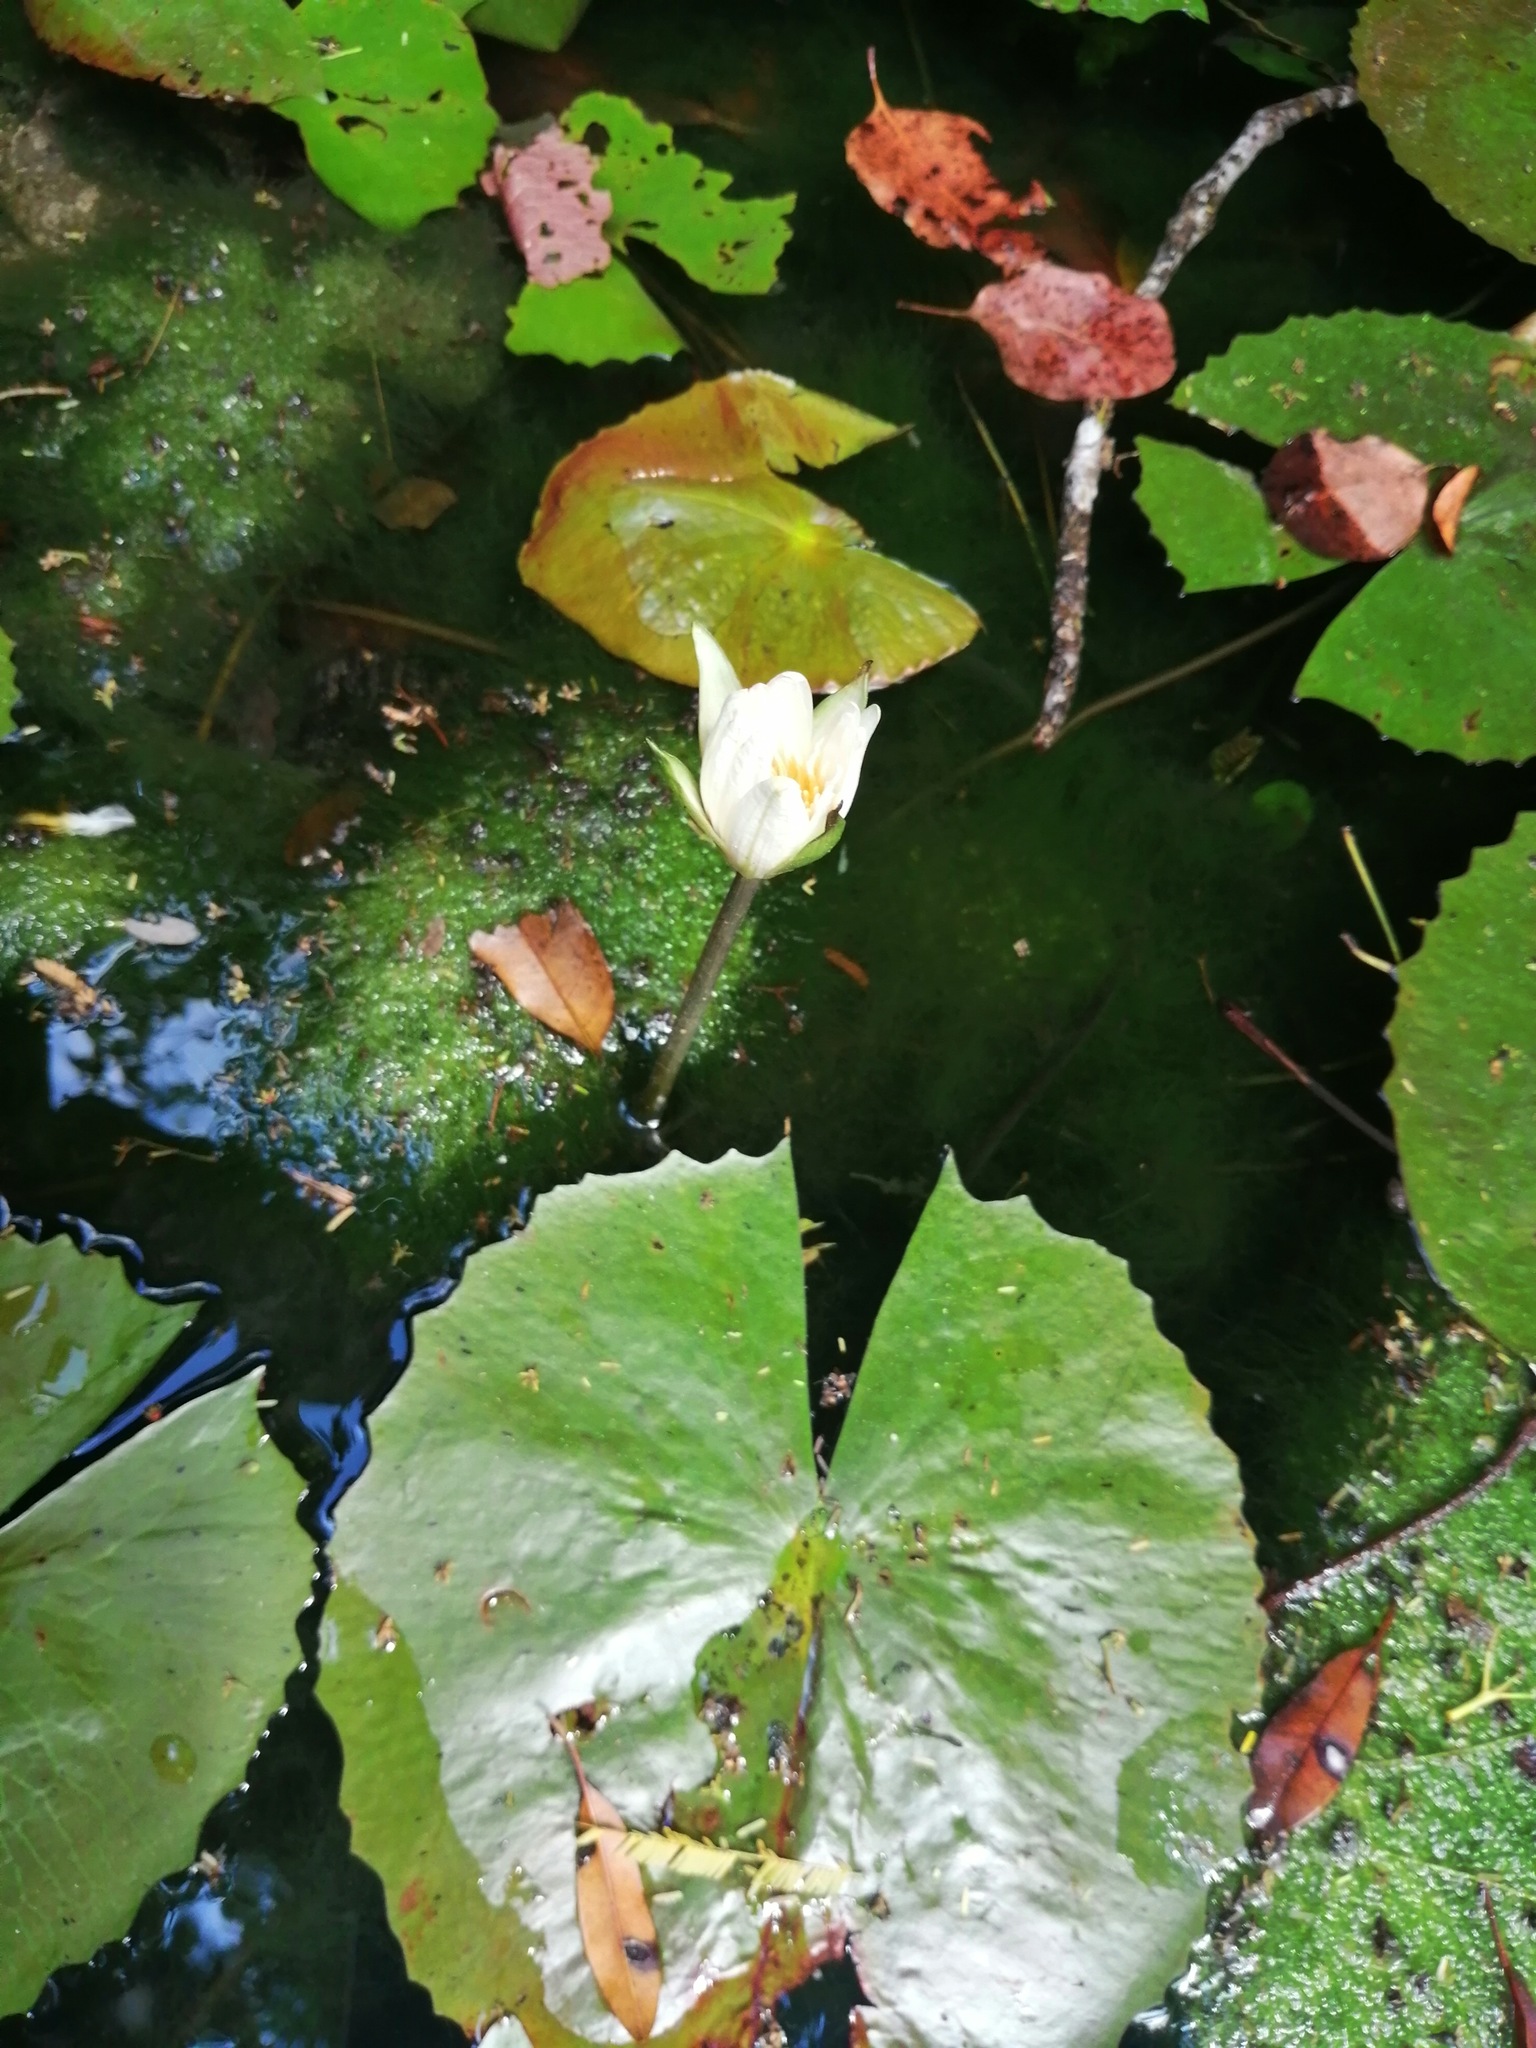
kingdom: Plantae
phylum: Tracheophyta
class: Magnoliopsida
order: Nymphaeales
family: Nymphaeaceae
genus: Nymphaea
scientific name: Nymphaea ampla
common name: Dotleaf waterlily
